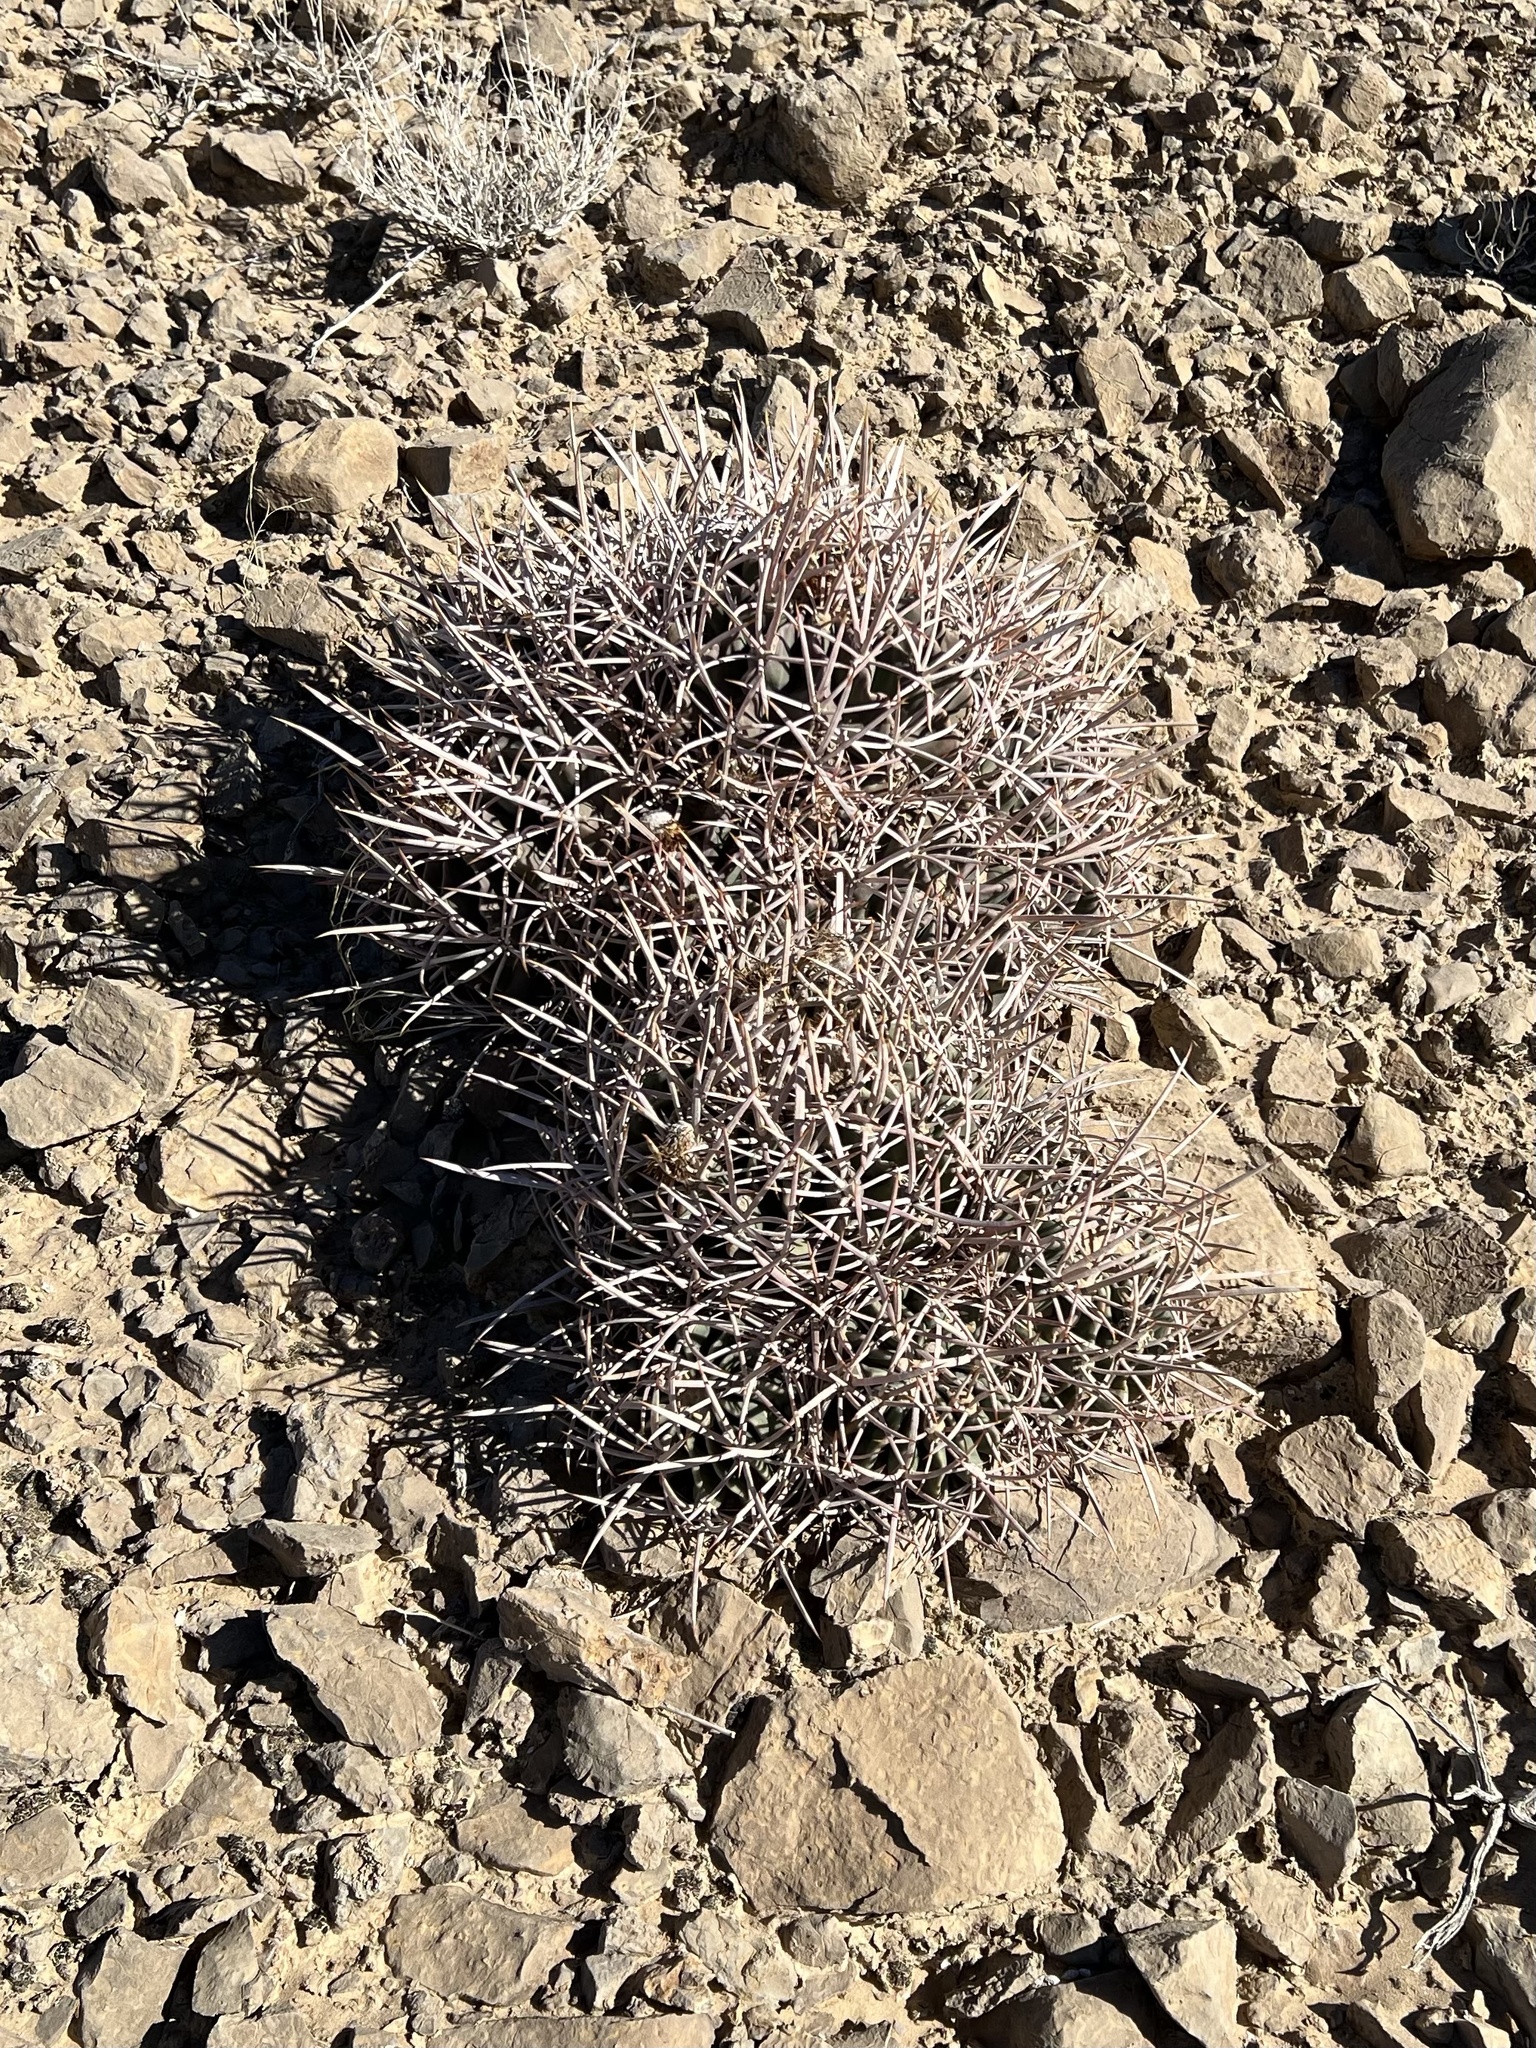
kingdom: Plantae
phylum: Tracheophyta
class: Magnoliopsida
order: Caryophyllales
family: Cactaceae
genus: Echinocactus
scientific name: Echinocactus polycephalus
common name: Cottontop cactus
